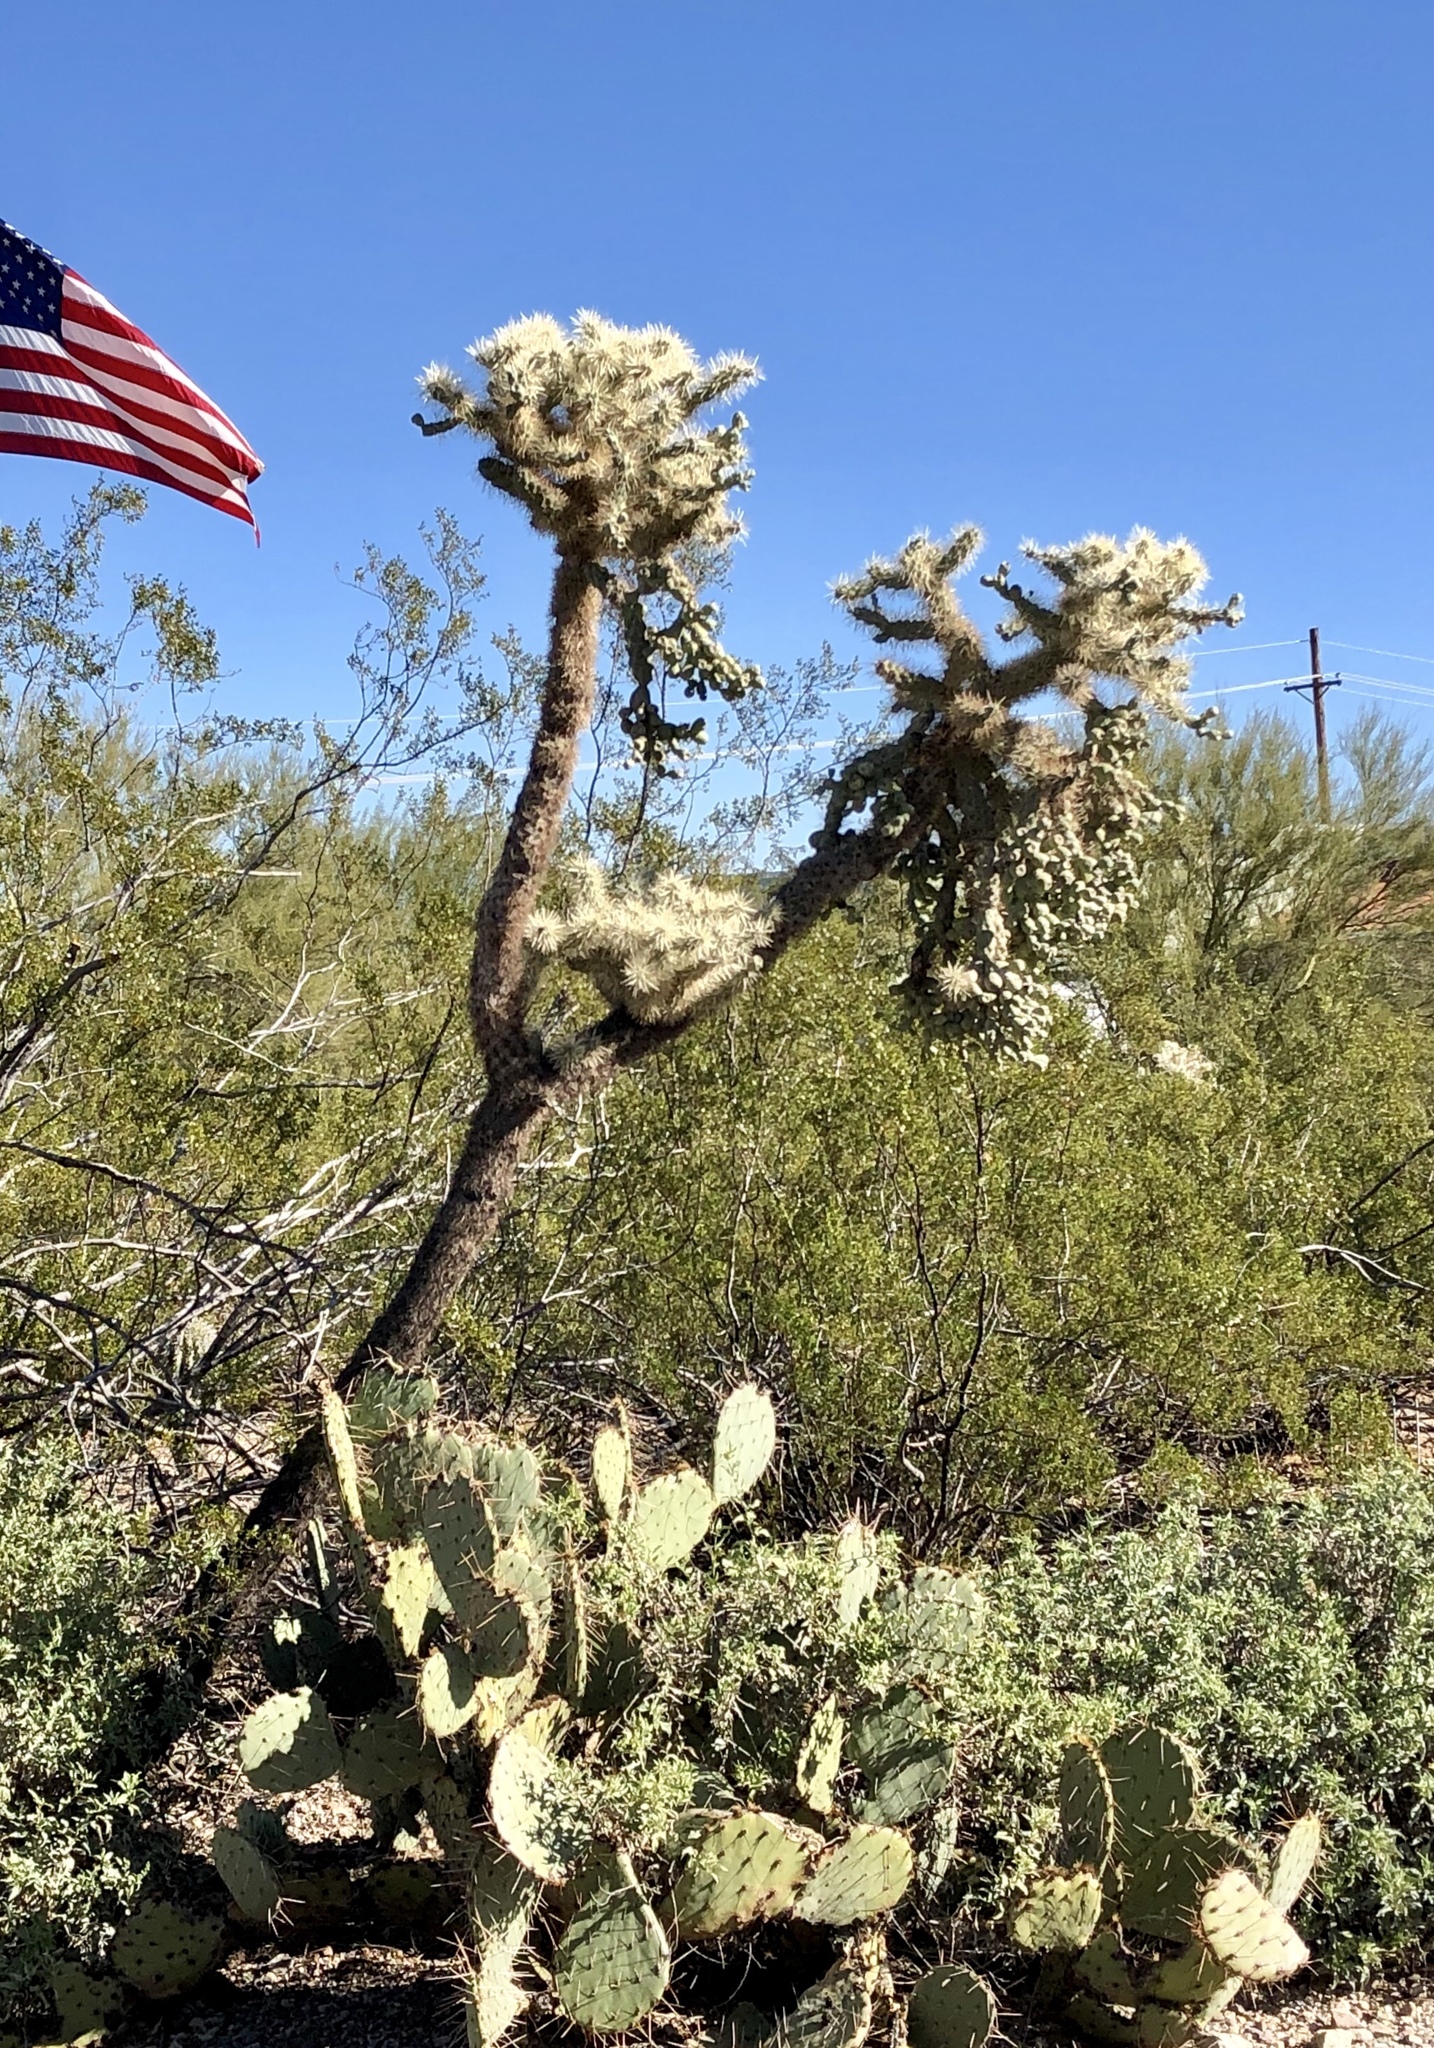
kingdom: Plantae
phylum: Tracheophyta
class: Magnoliopsida
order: Caryophyllales
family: Cactaceae
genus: Cylindropuntia
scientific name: Cylindropuntia fulgida
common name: Jumping cholla
